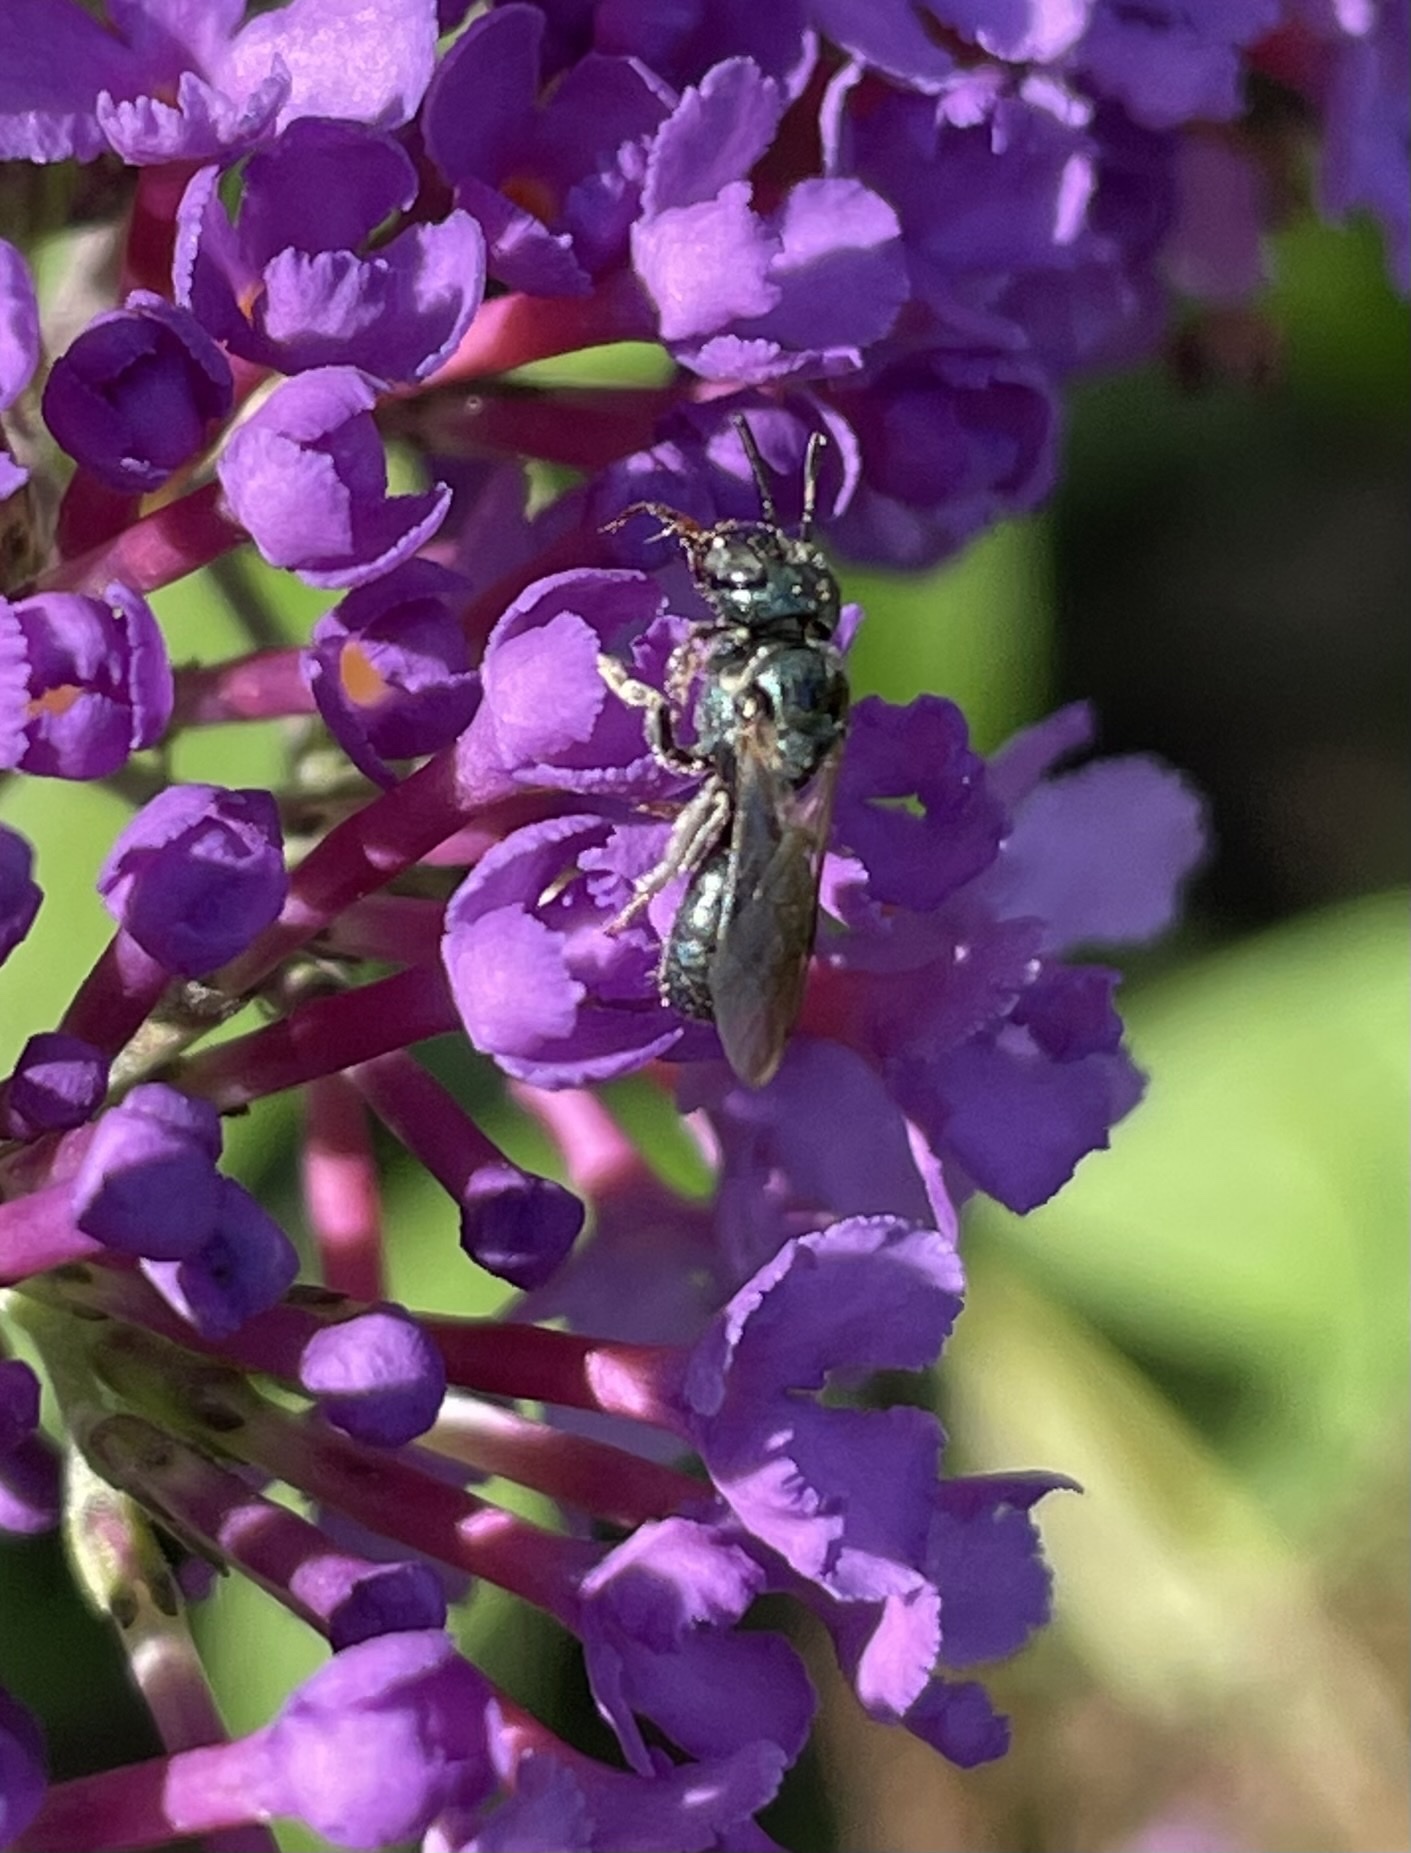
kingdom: Animalia
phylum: Arthropoda
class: Insecta
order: Hymenoptera
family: Apidae
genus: Zadontomerus
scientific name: Zadontomerus
